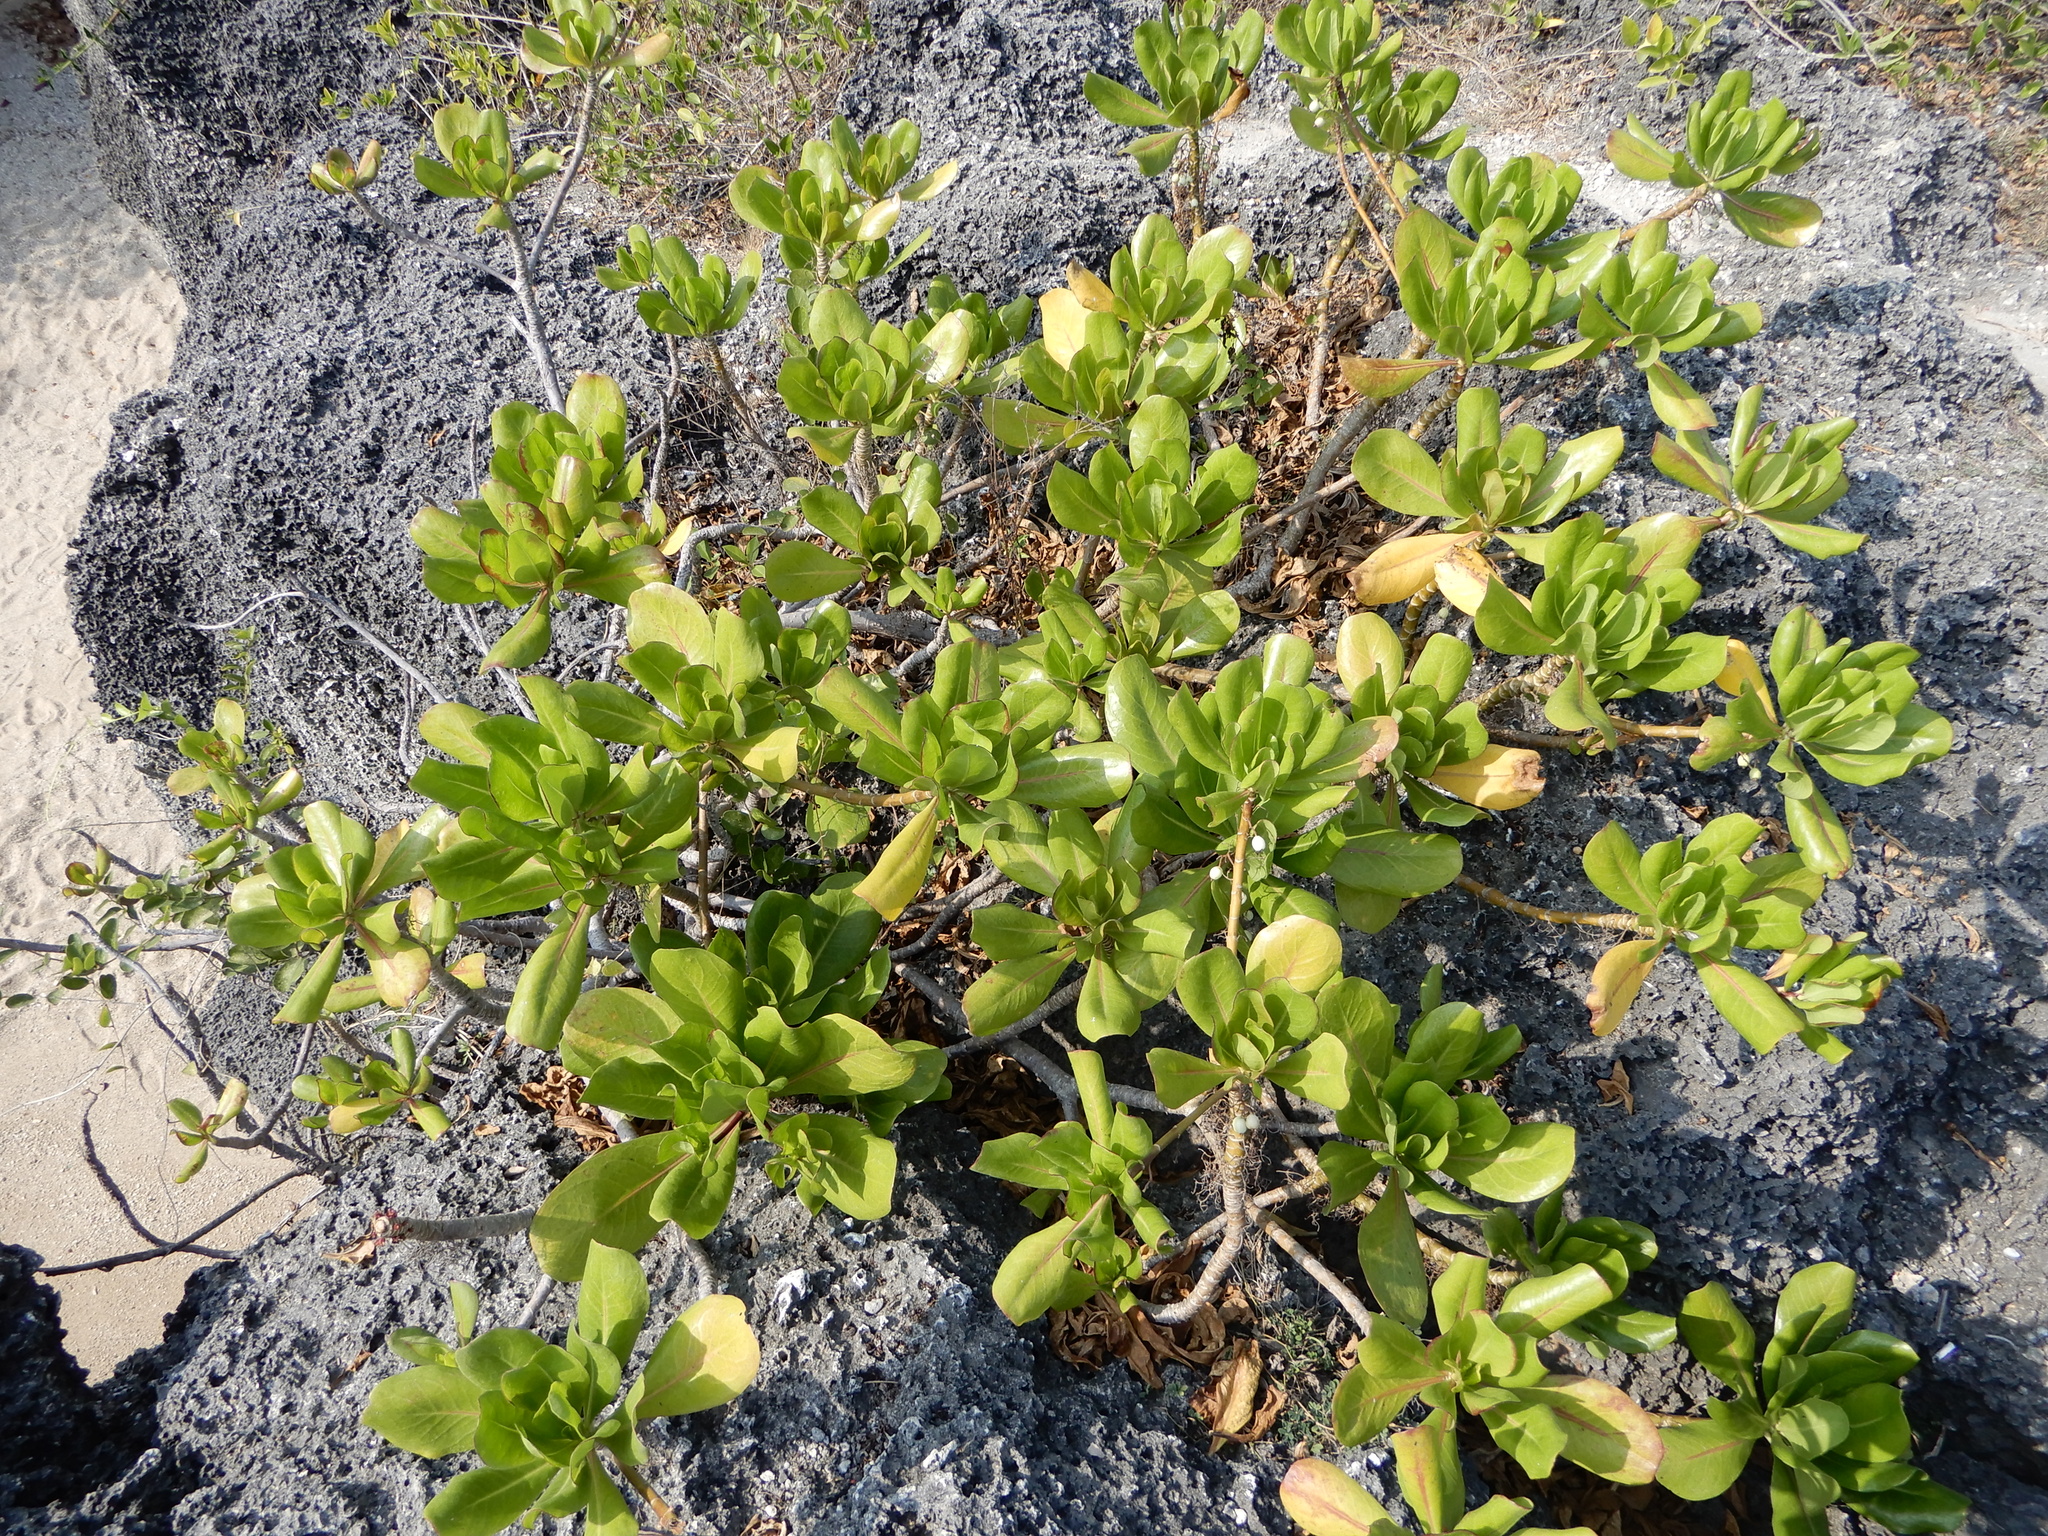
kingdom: Plantae
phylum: Tracheophyta
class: Magnoliopsida
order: Asterales
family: Goodeniaceae
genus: Scaevola
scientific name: Scaevola taccada
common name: Sea lettucetree
